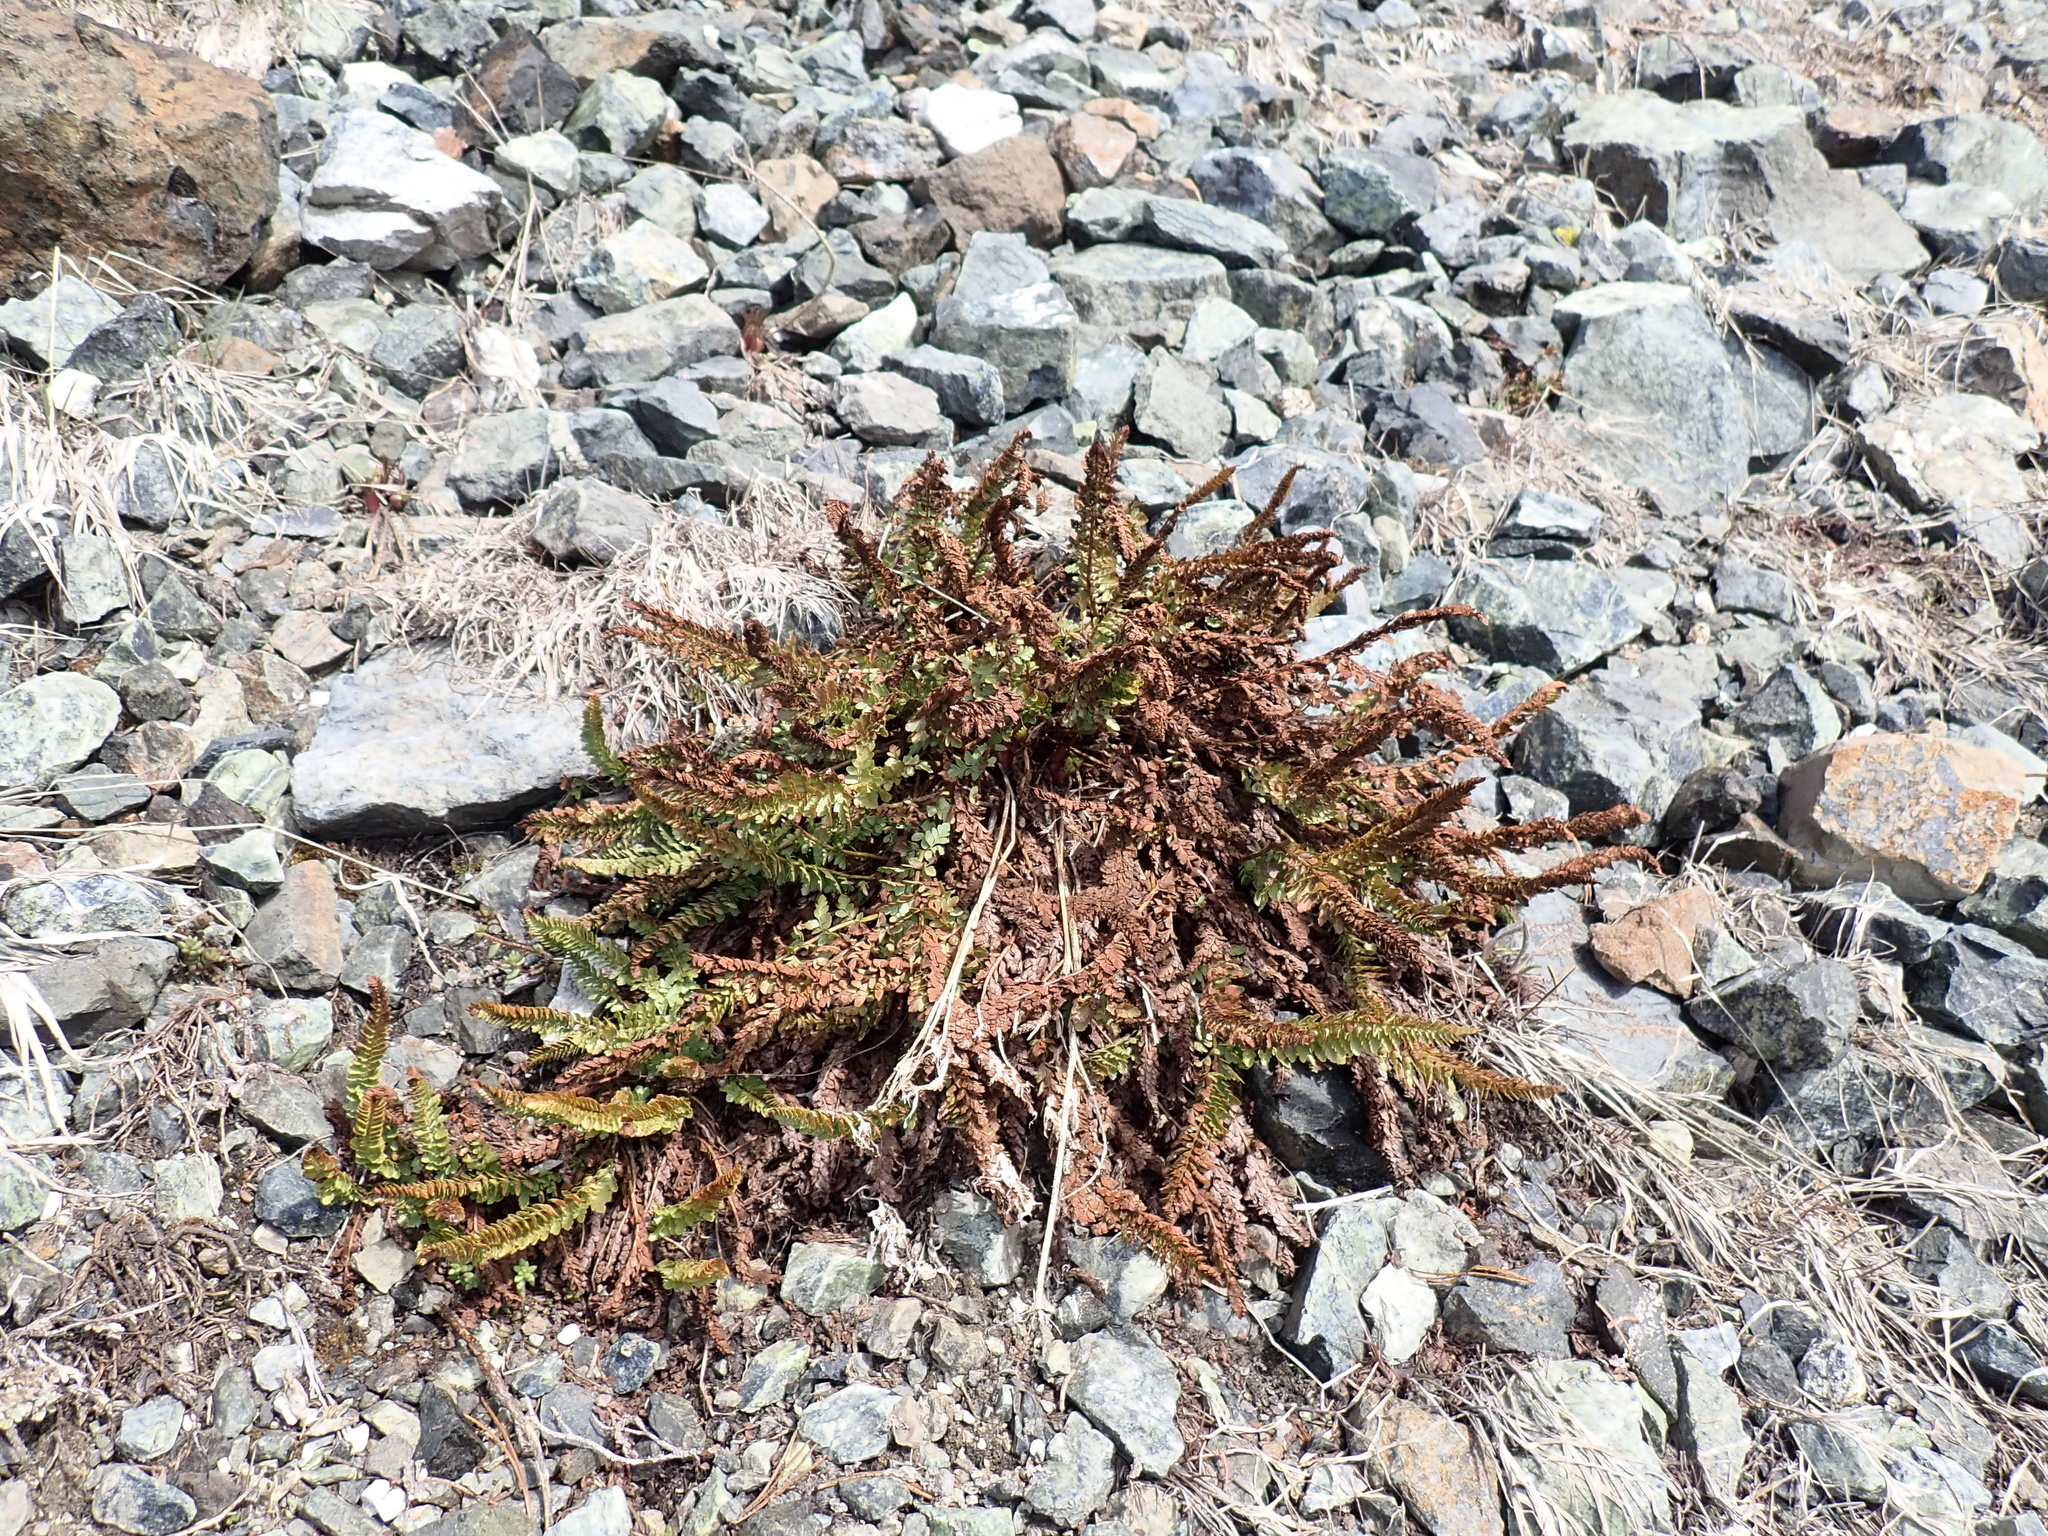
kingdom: Plantae
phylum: Tracheophyta
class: Polypodiopsida
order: Polypodiales
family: Dryopteridaceae
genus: Polystichum
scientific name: Polystichum lemmonii
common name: Lemmon's holly fern
